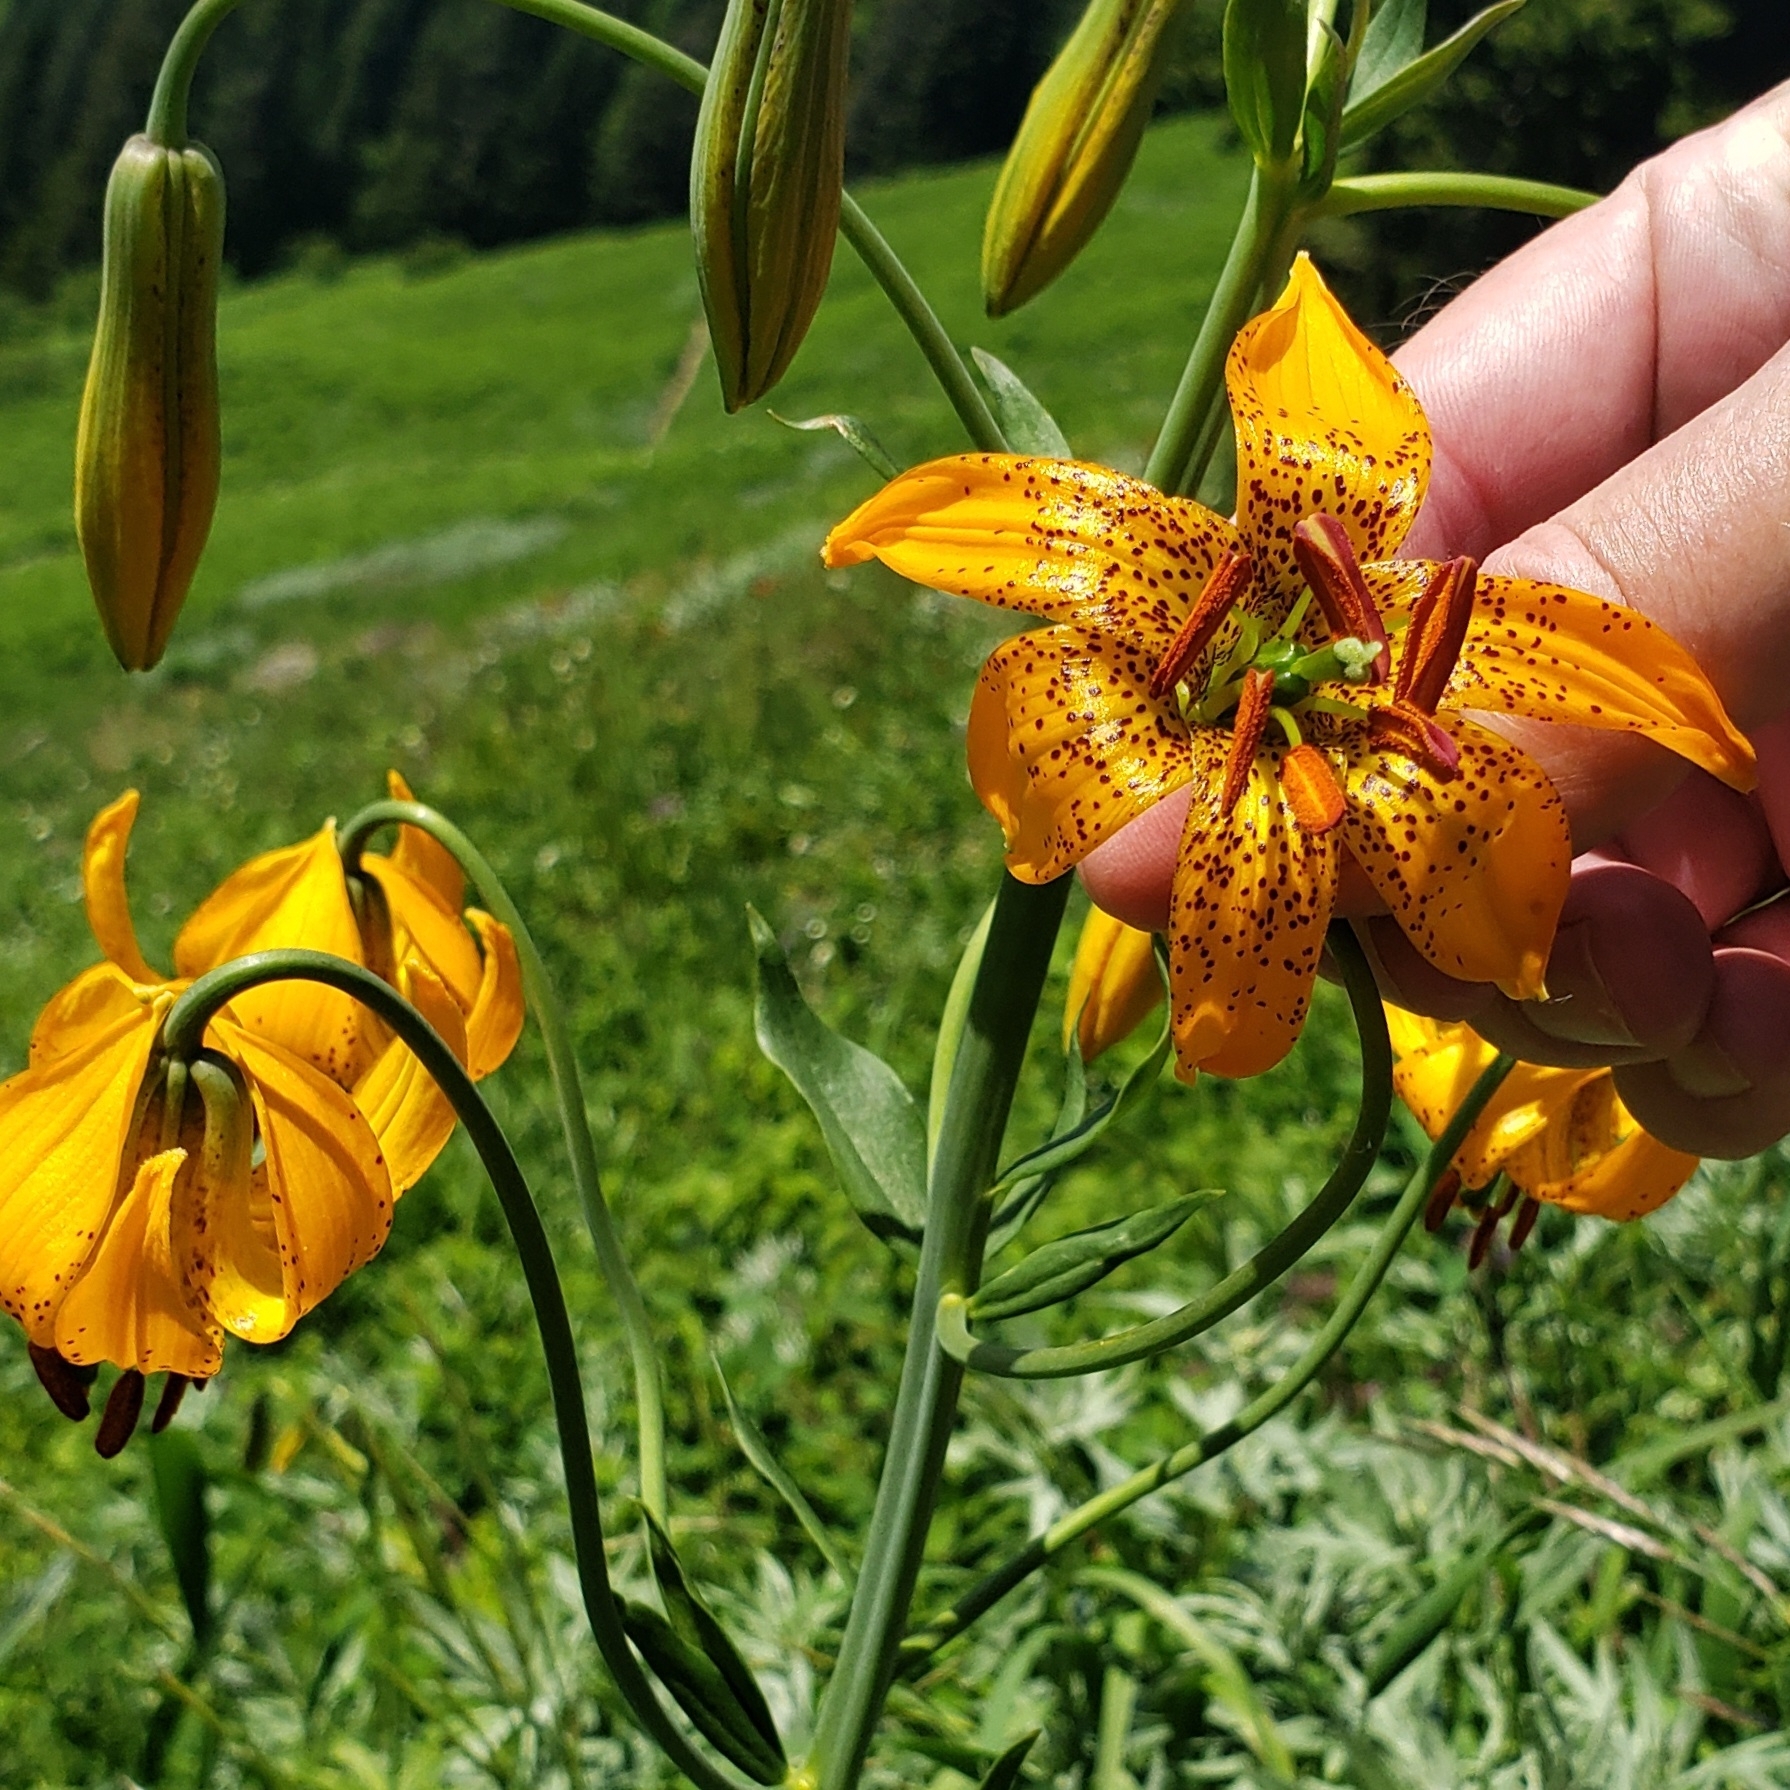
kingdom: Plantae
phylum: Tracheophyta
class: Liliopsida
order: Liliales
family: Liliaceae
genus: Lilium
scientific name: Lilium columbianum
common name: Columbia lily
